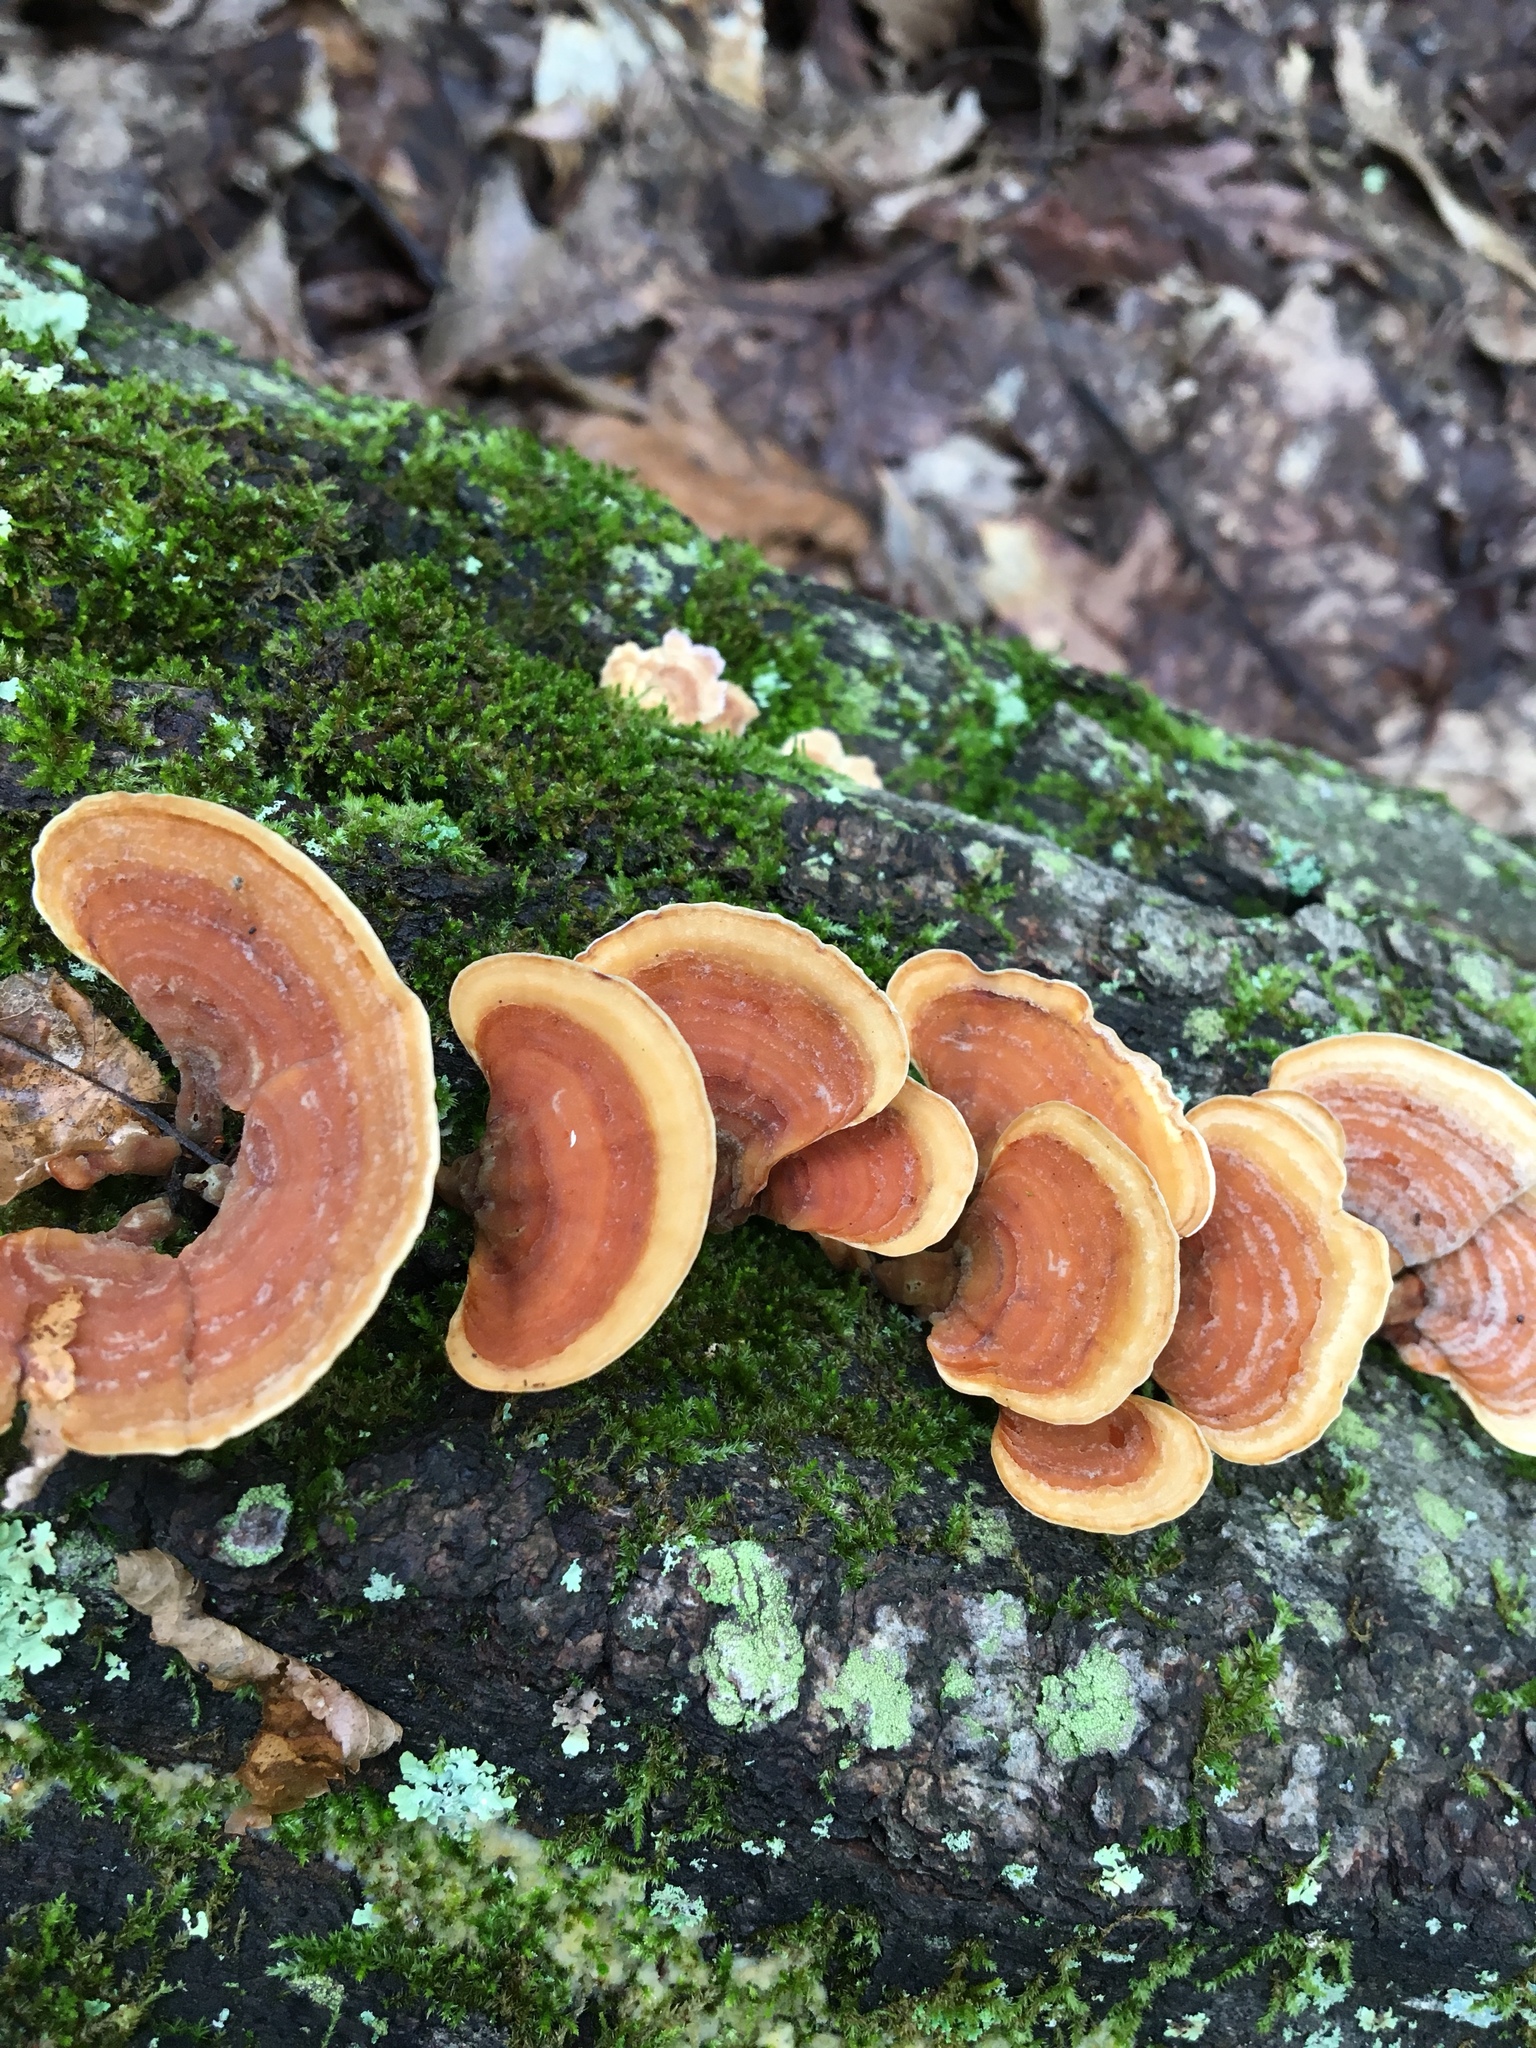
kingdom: Fungi
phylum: Basidiomycota
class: Agaricomycetes
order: Russulales
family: Stereaceae
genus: Stereum
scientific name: Stereum ostrea
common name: False turkeytail
